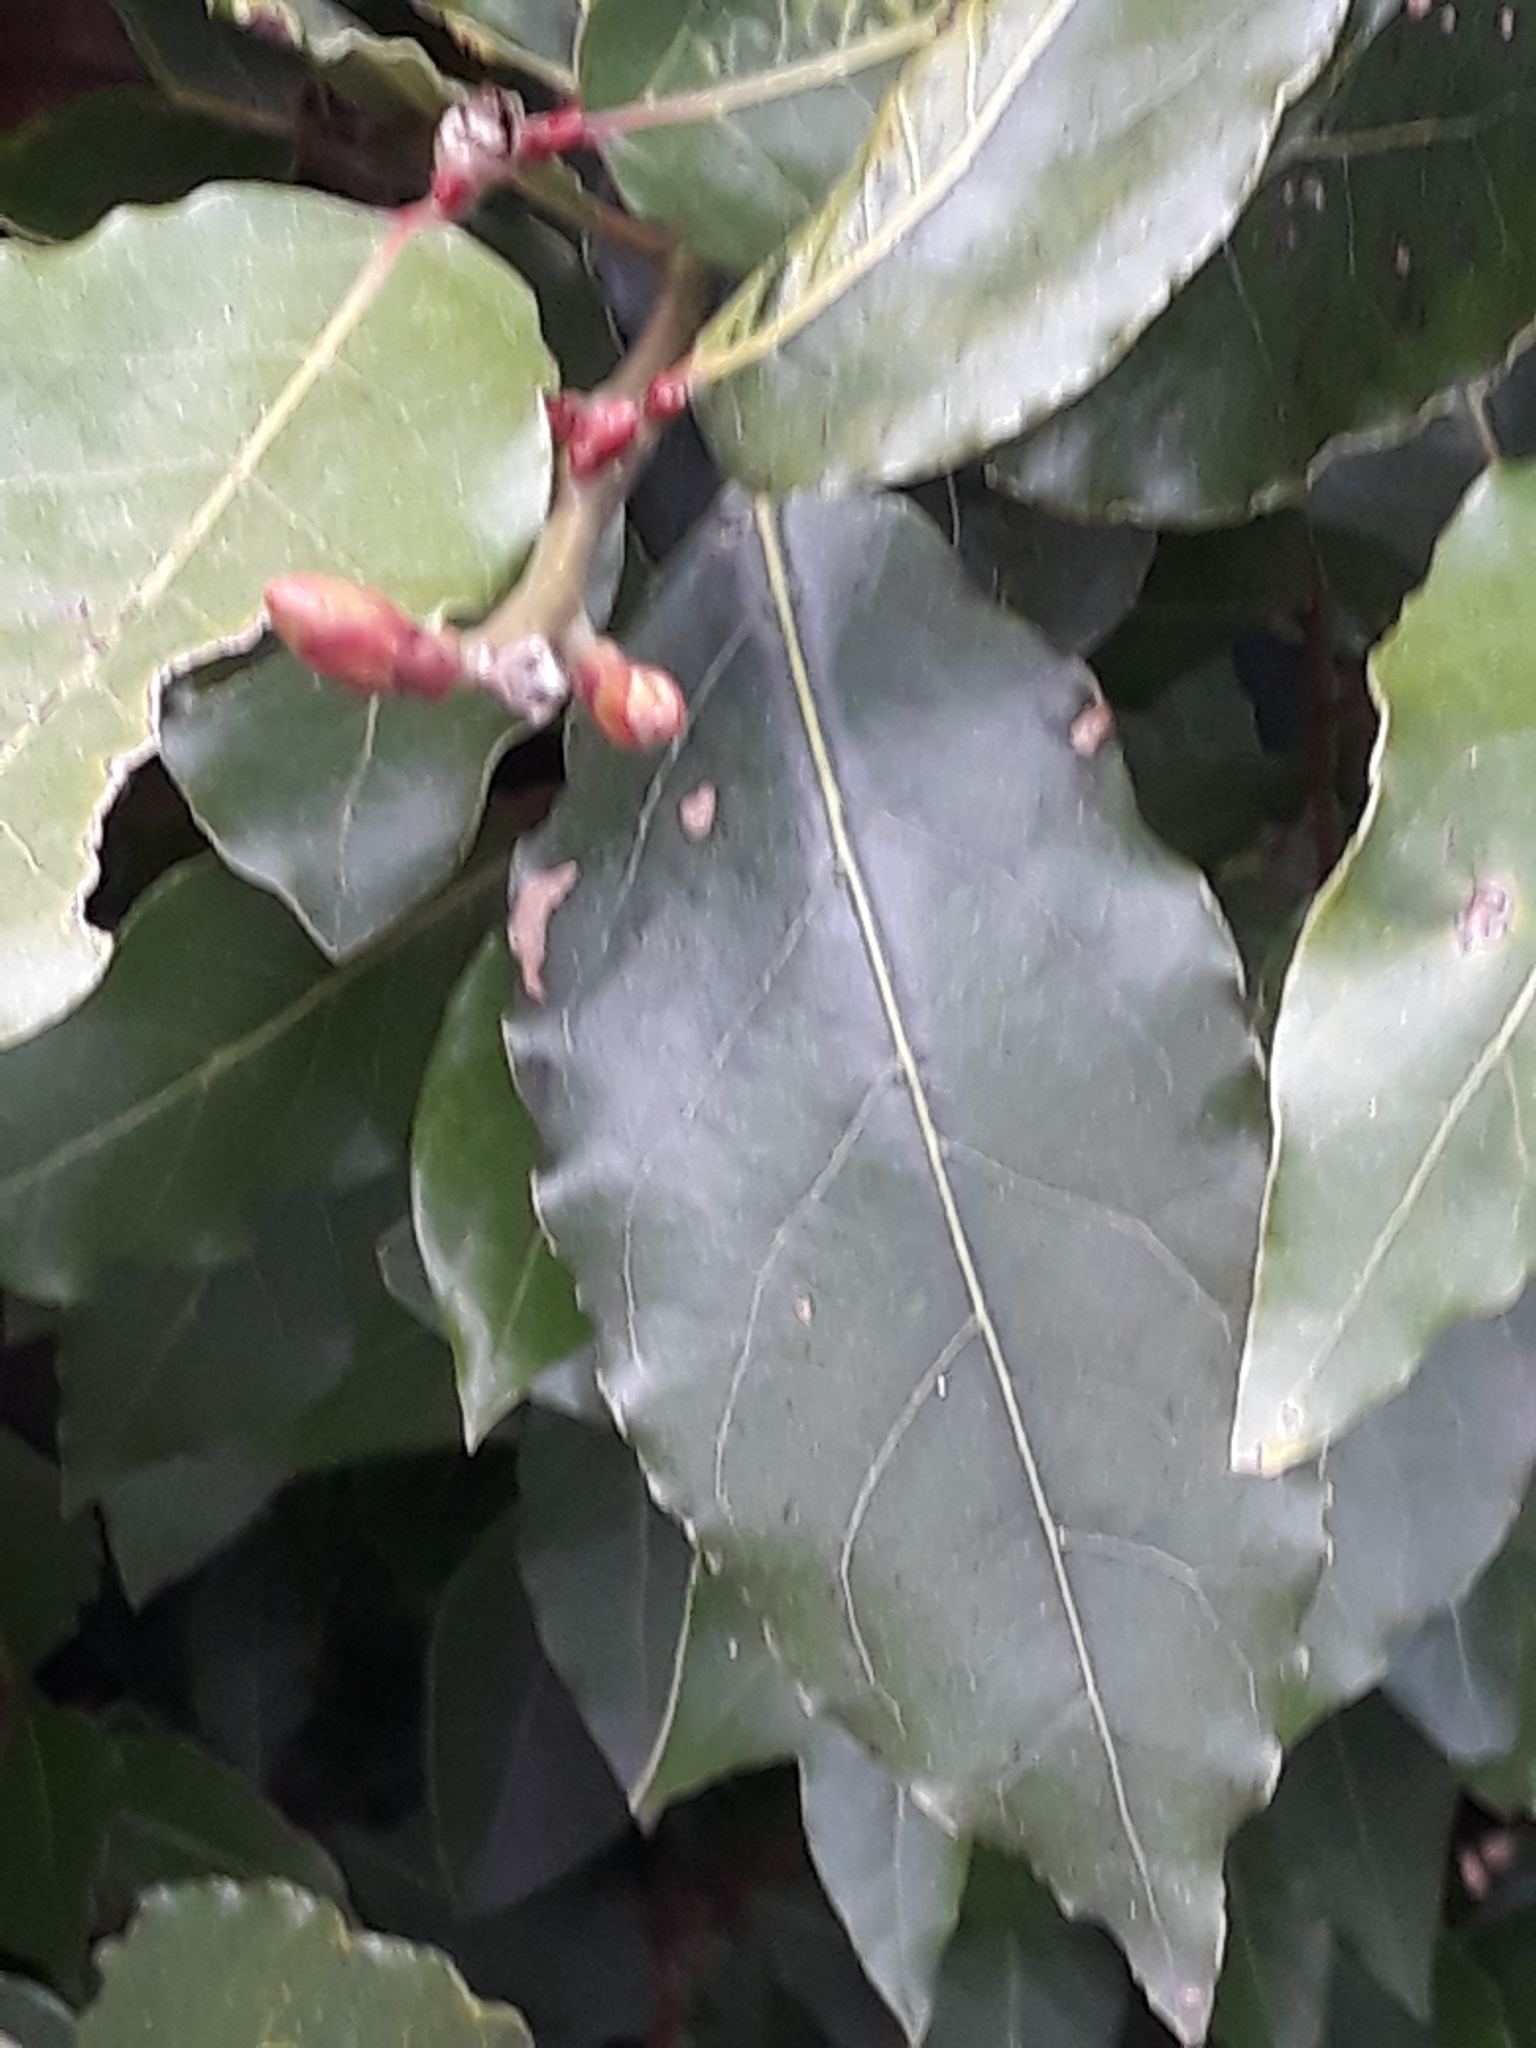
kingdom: Plantae
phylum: Tracheophyta
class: Magnoliopsida
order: Laurales
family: Lauraceae
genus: Laurus
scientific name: Laurus nobilis
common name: Bay
